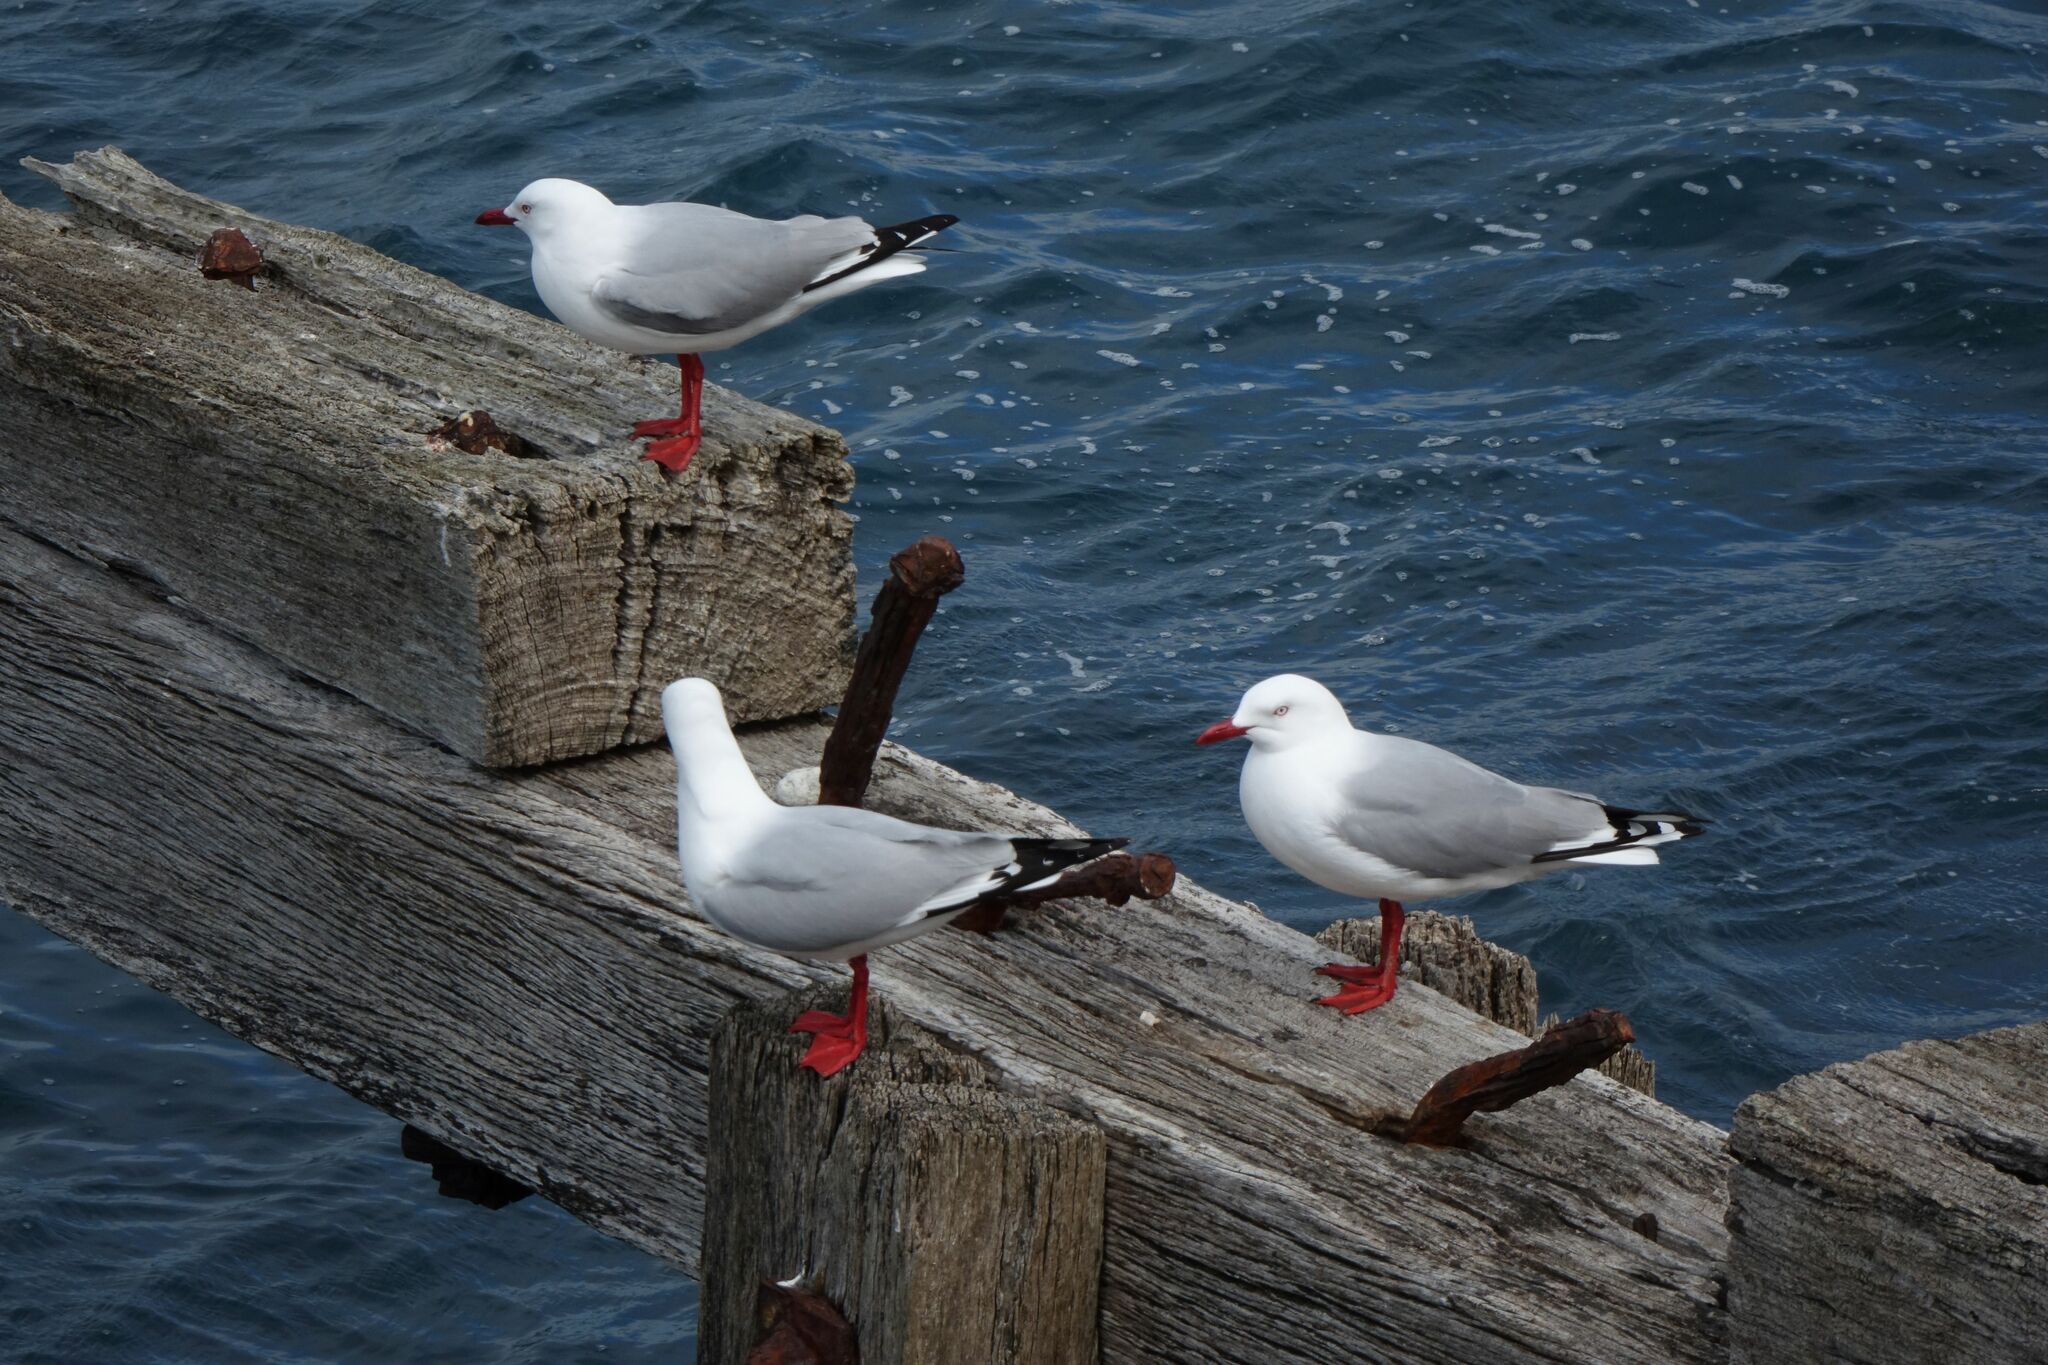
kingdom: Animalia
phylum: Chordata
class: Aves
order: Charadriiformes
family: Laridae
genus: Chroicocephalus
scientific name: Chroicocephalus novaehollandiae
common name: Silver gull
